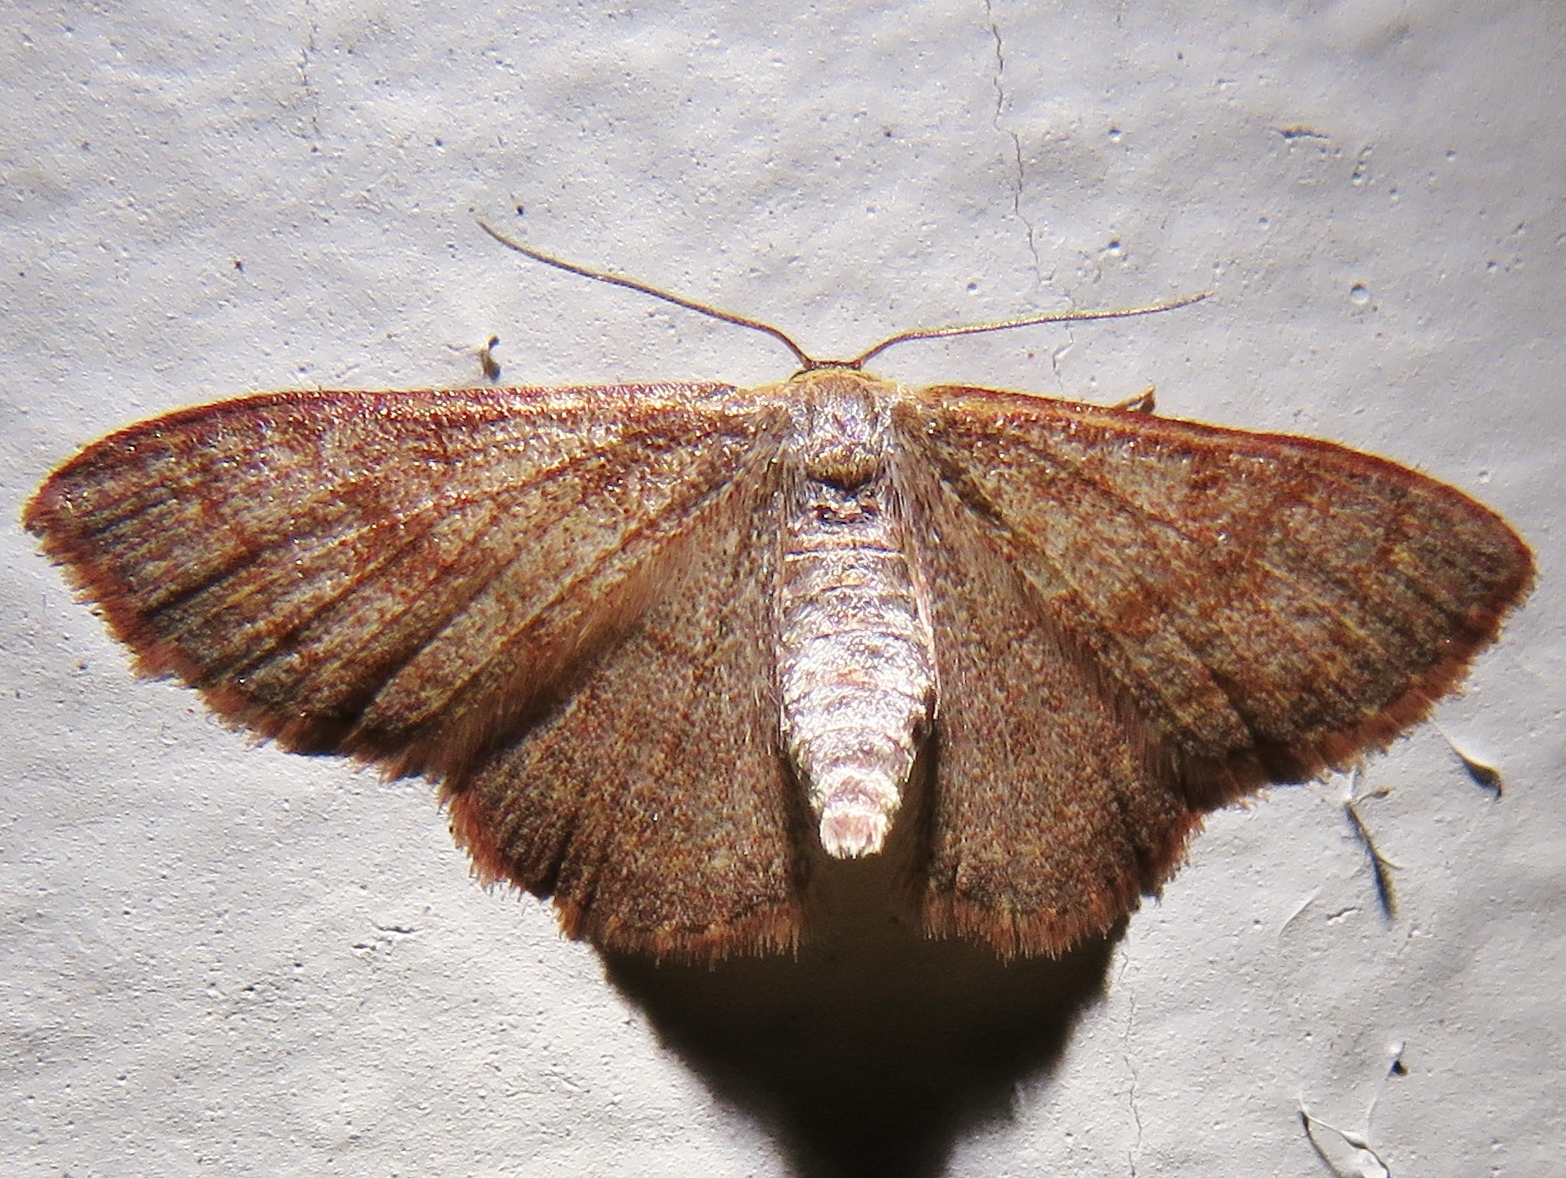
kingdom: Animalia
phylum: Arthropoda
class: Insecta
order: Lepidoptera
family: Geometridae
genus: Leptostales
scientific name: Leptostales pannaria
